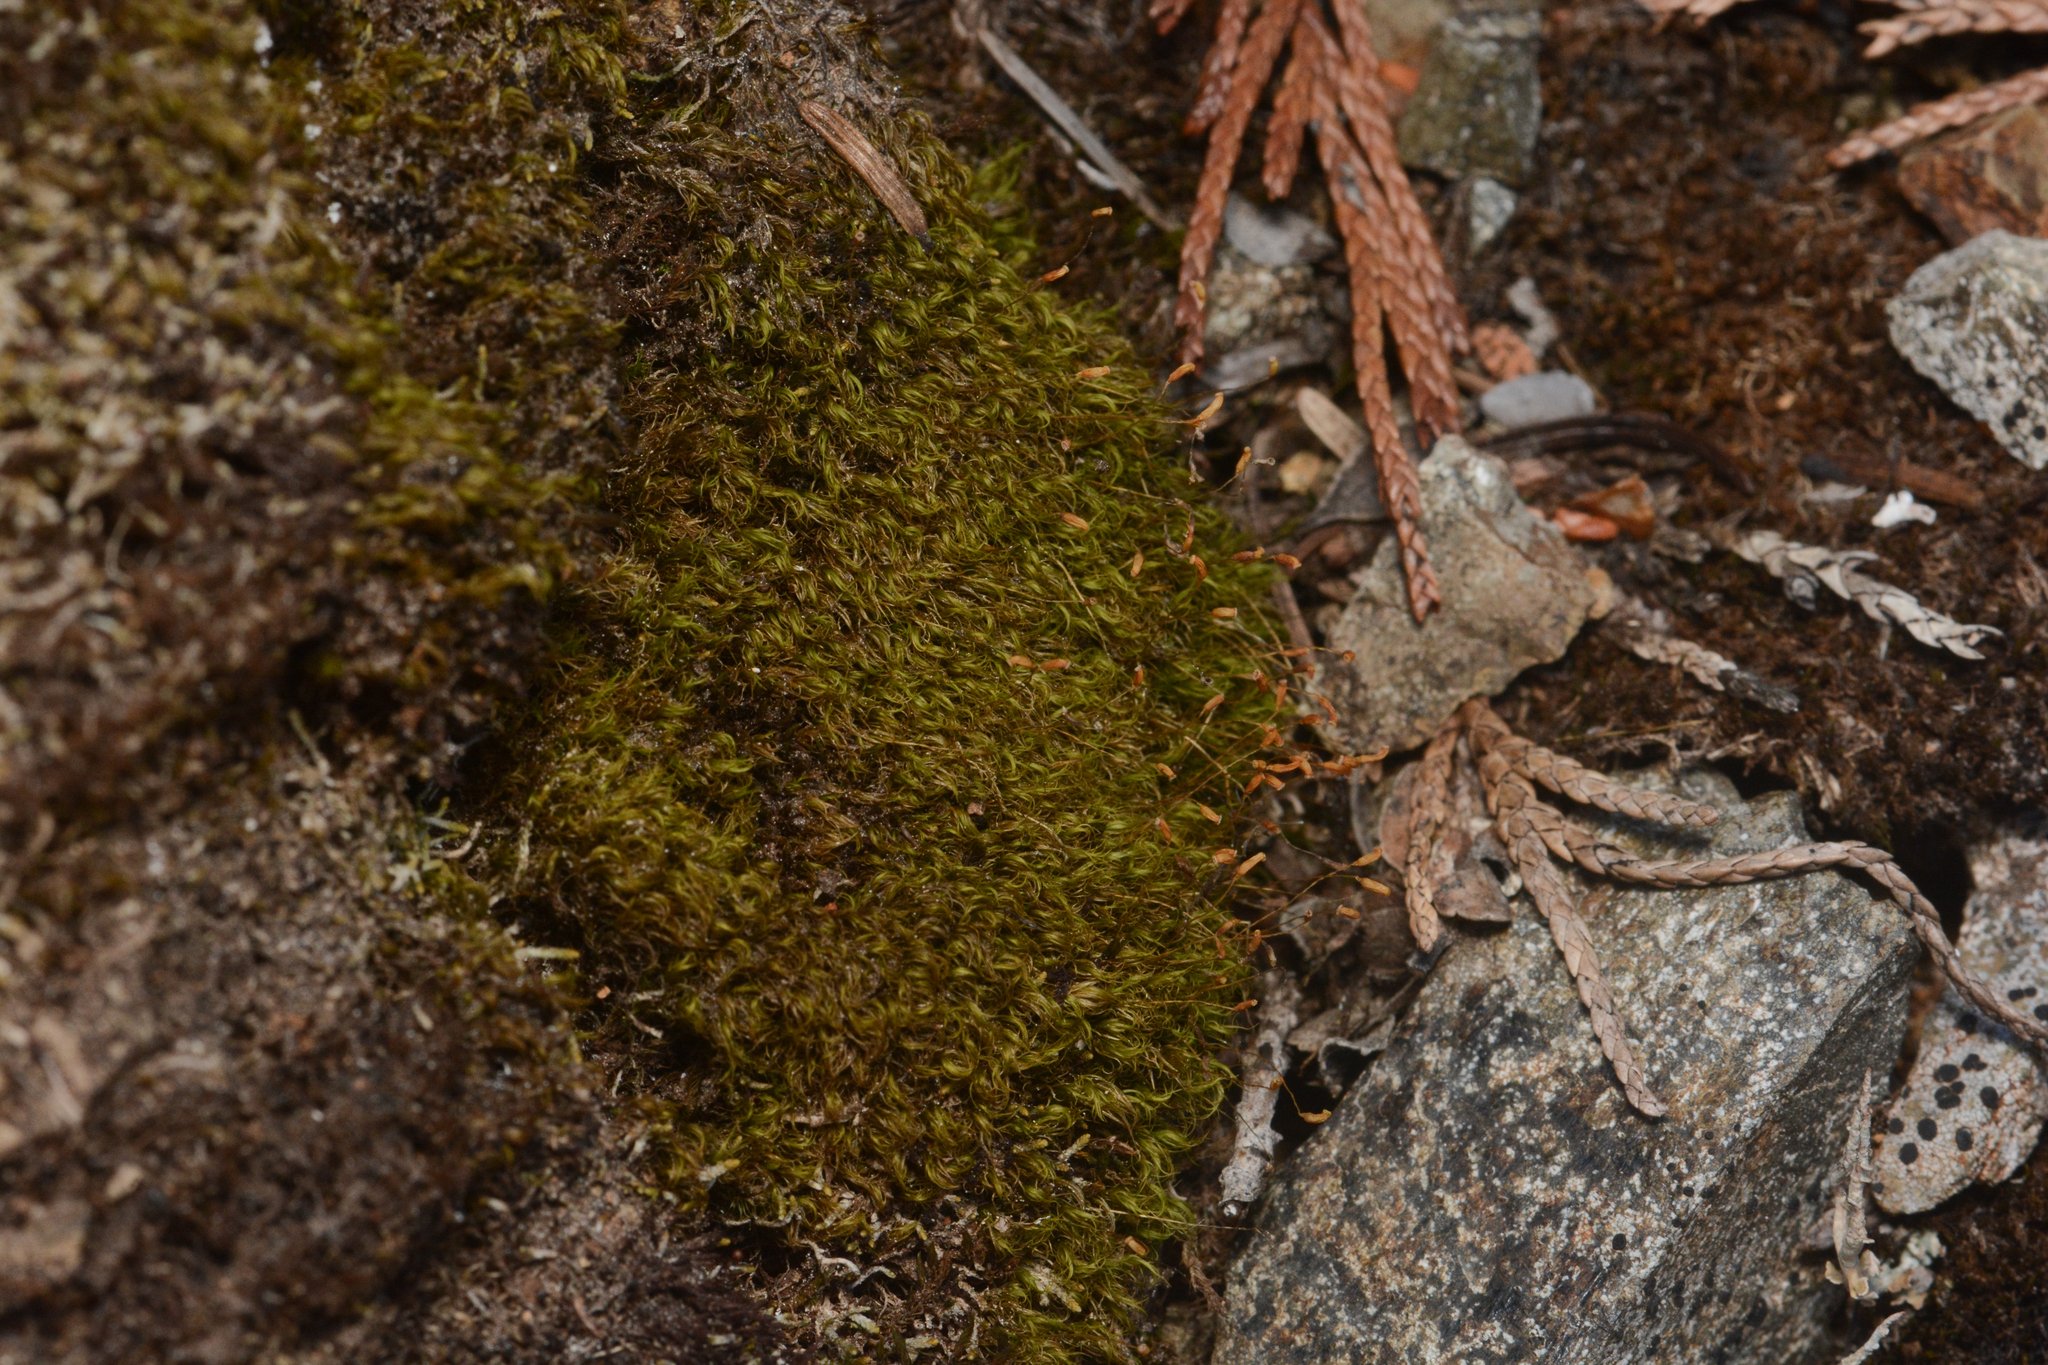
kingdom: Plantae
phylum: Bryophyta
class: Bryopsida
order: Dicranales
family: Rhabdoweisiaceae
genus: Arctoa
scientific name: Arctoa starkei
